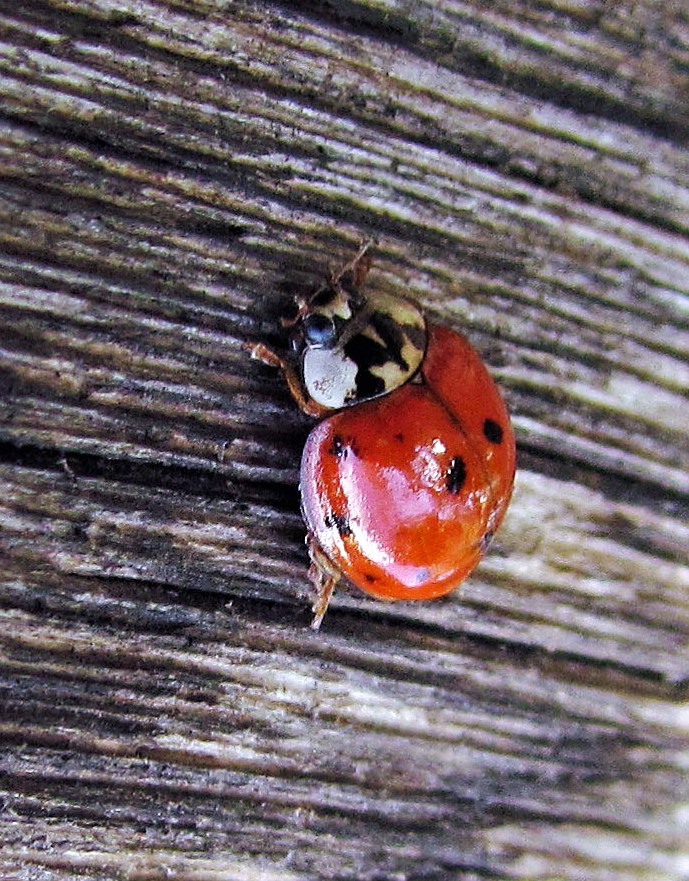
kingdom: Animalia
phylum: Arthropoda
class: Insecta
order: Coleoptera
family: Coccinellidae
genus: Harmonia
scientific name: Harmonia axyridis
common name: Harlequin ladybird
